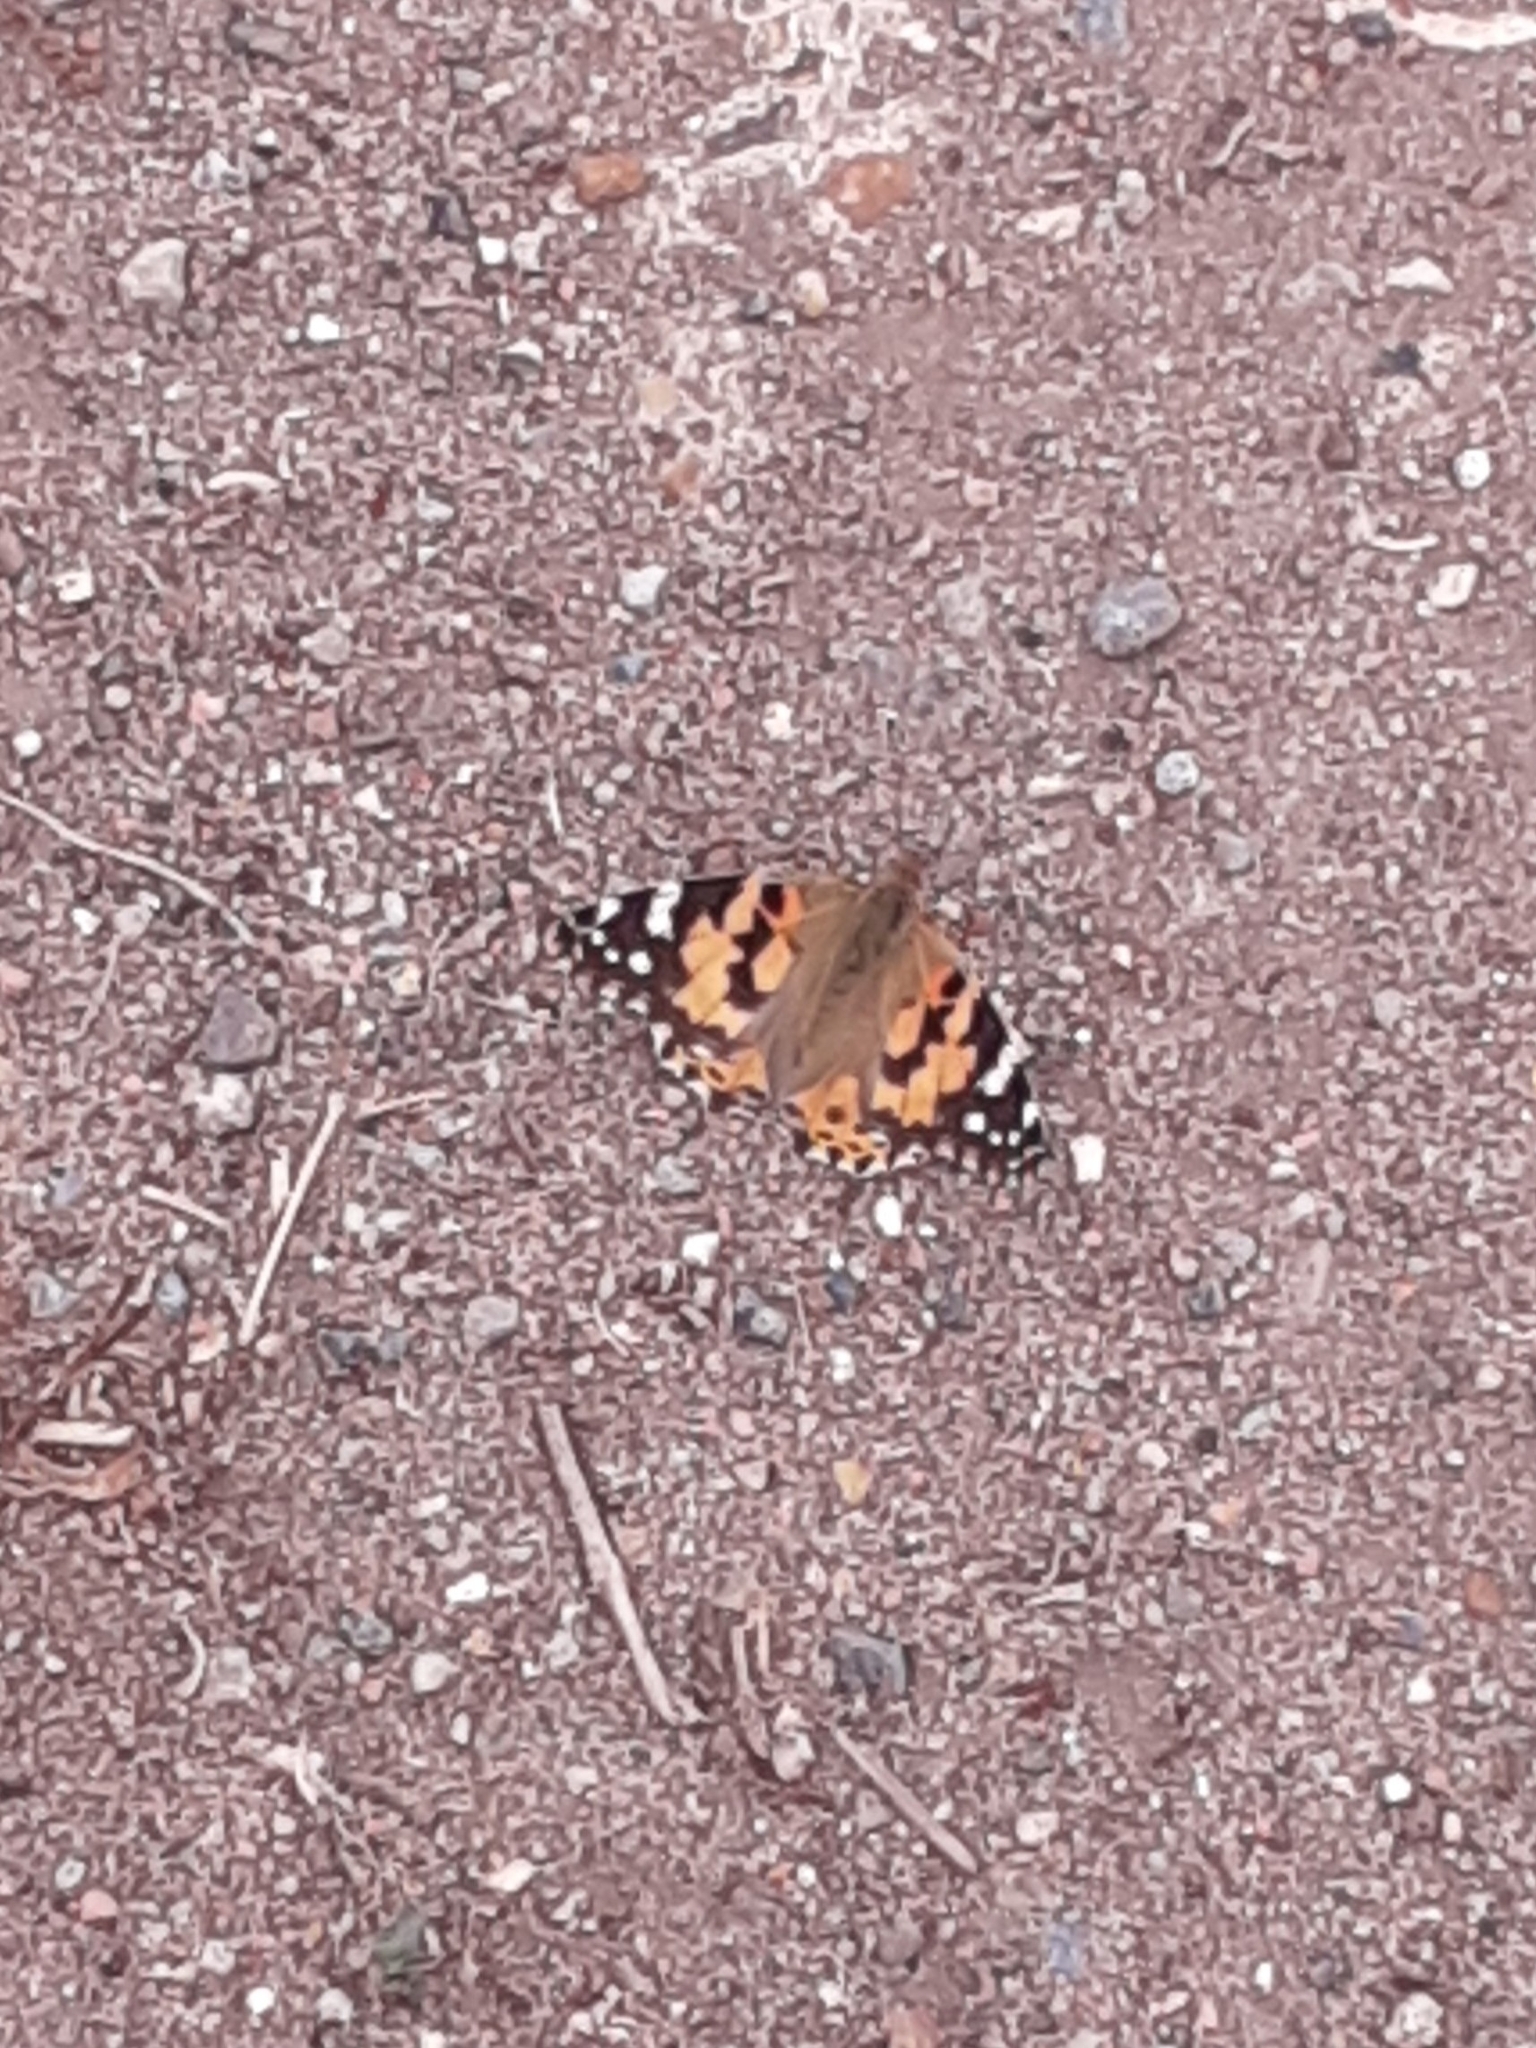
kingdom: Animalia
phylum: Arthropoda
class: Insecta
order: Lepidoptera
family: Nymphalidae
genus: Vanessa
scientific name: Vanessa cardui
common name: Painted lady
